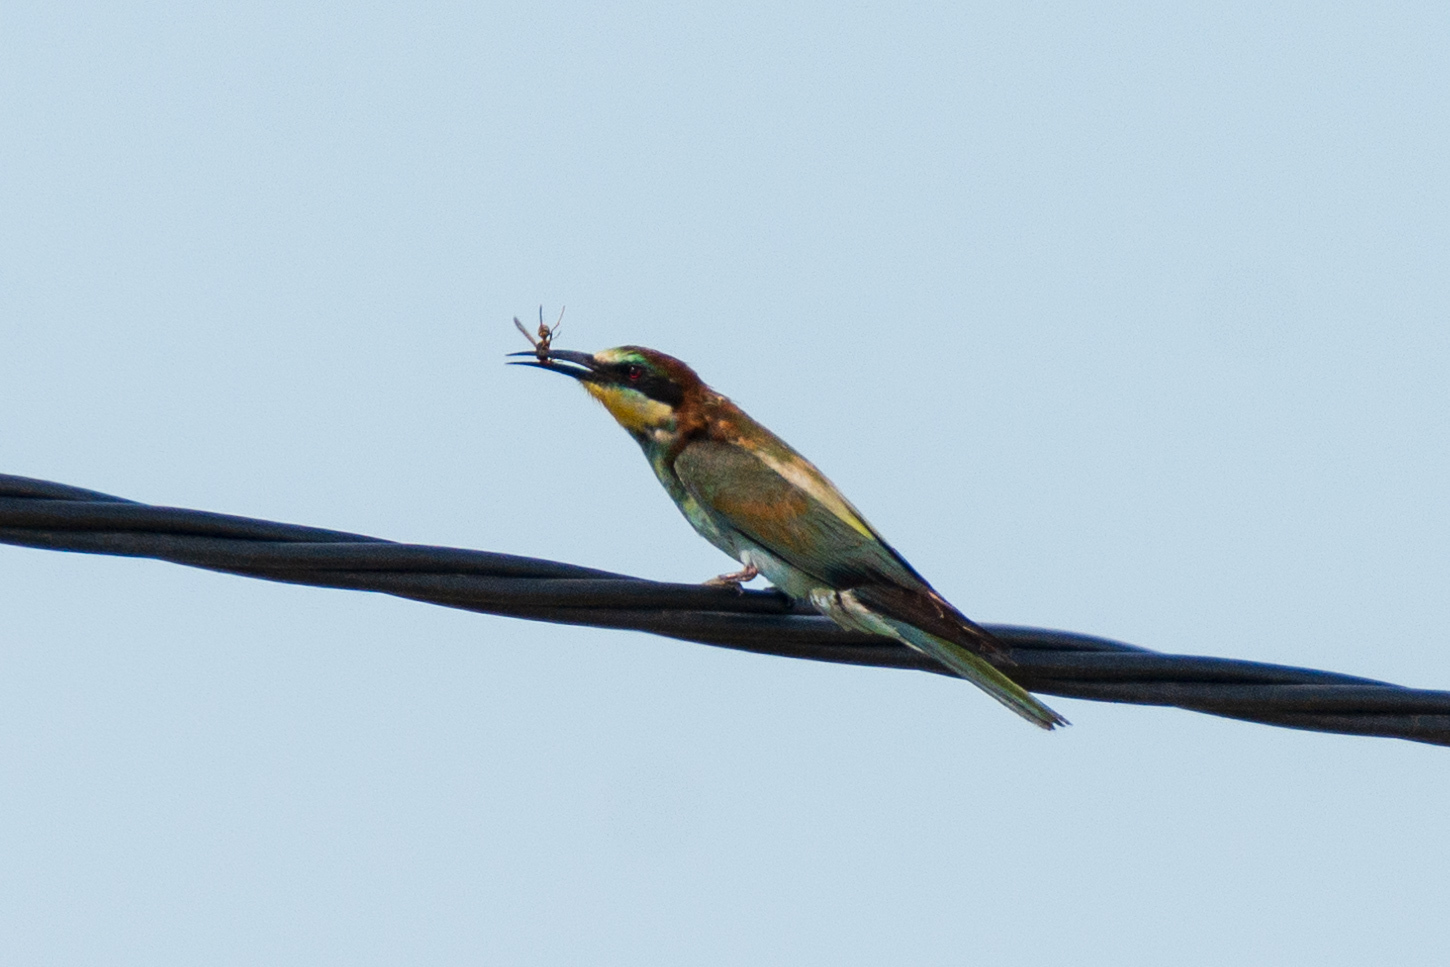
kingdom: Animalia
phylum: Chordata
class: Aves
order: Coraciiformes
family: Meropidae
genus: Merops
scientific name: Merops apiaster
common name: European bee-eater
